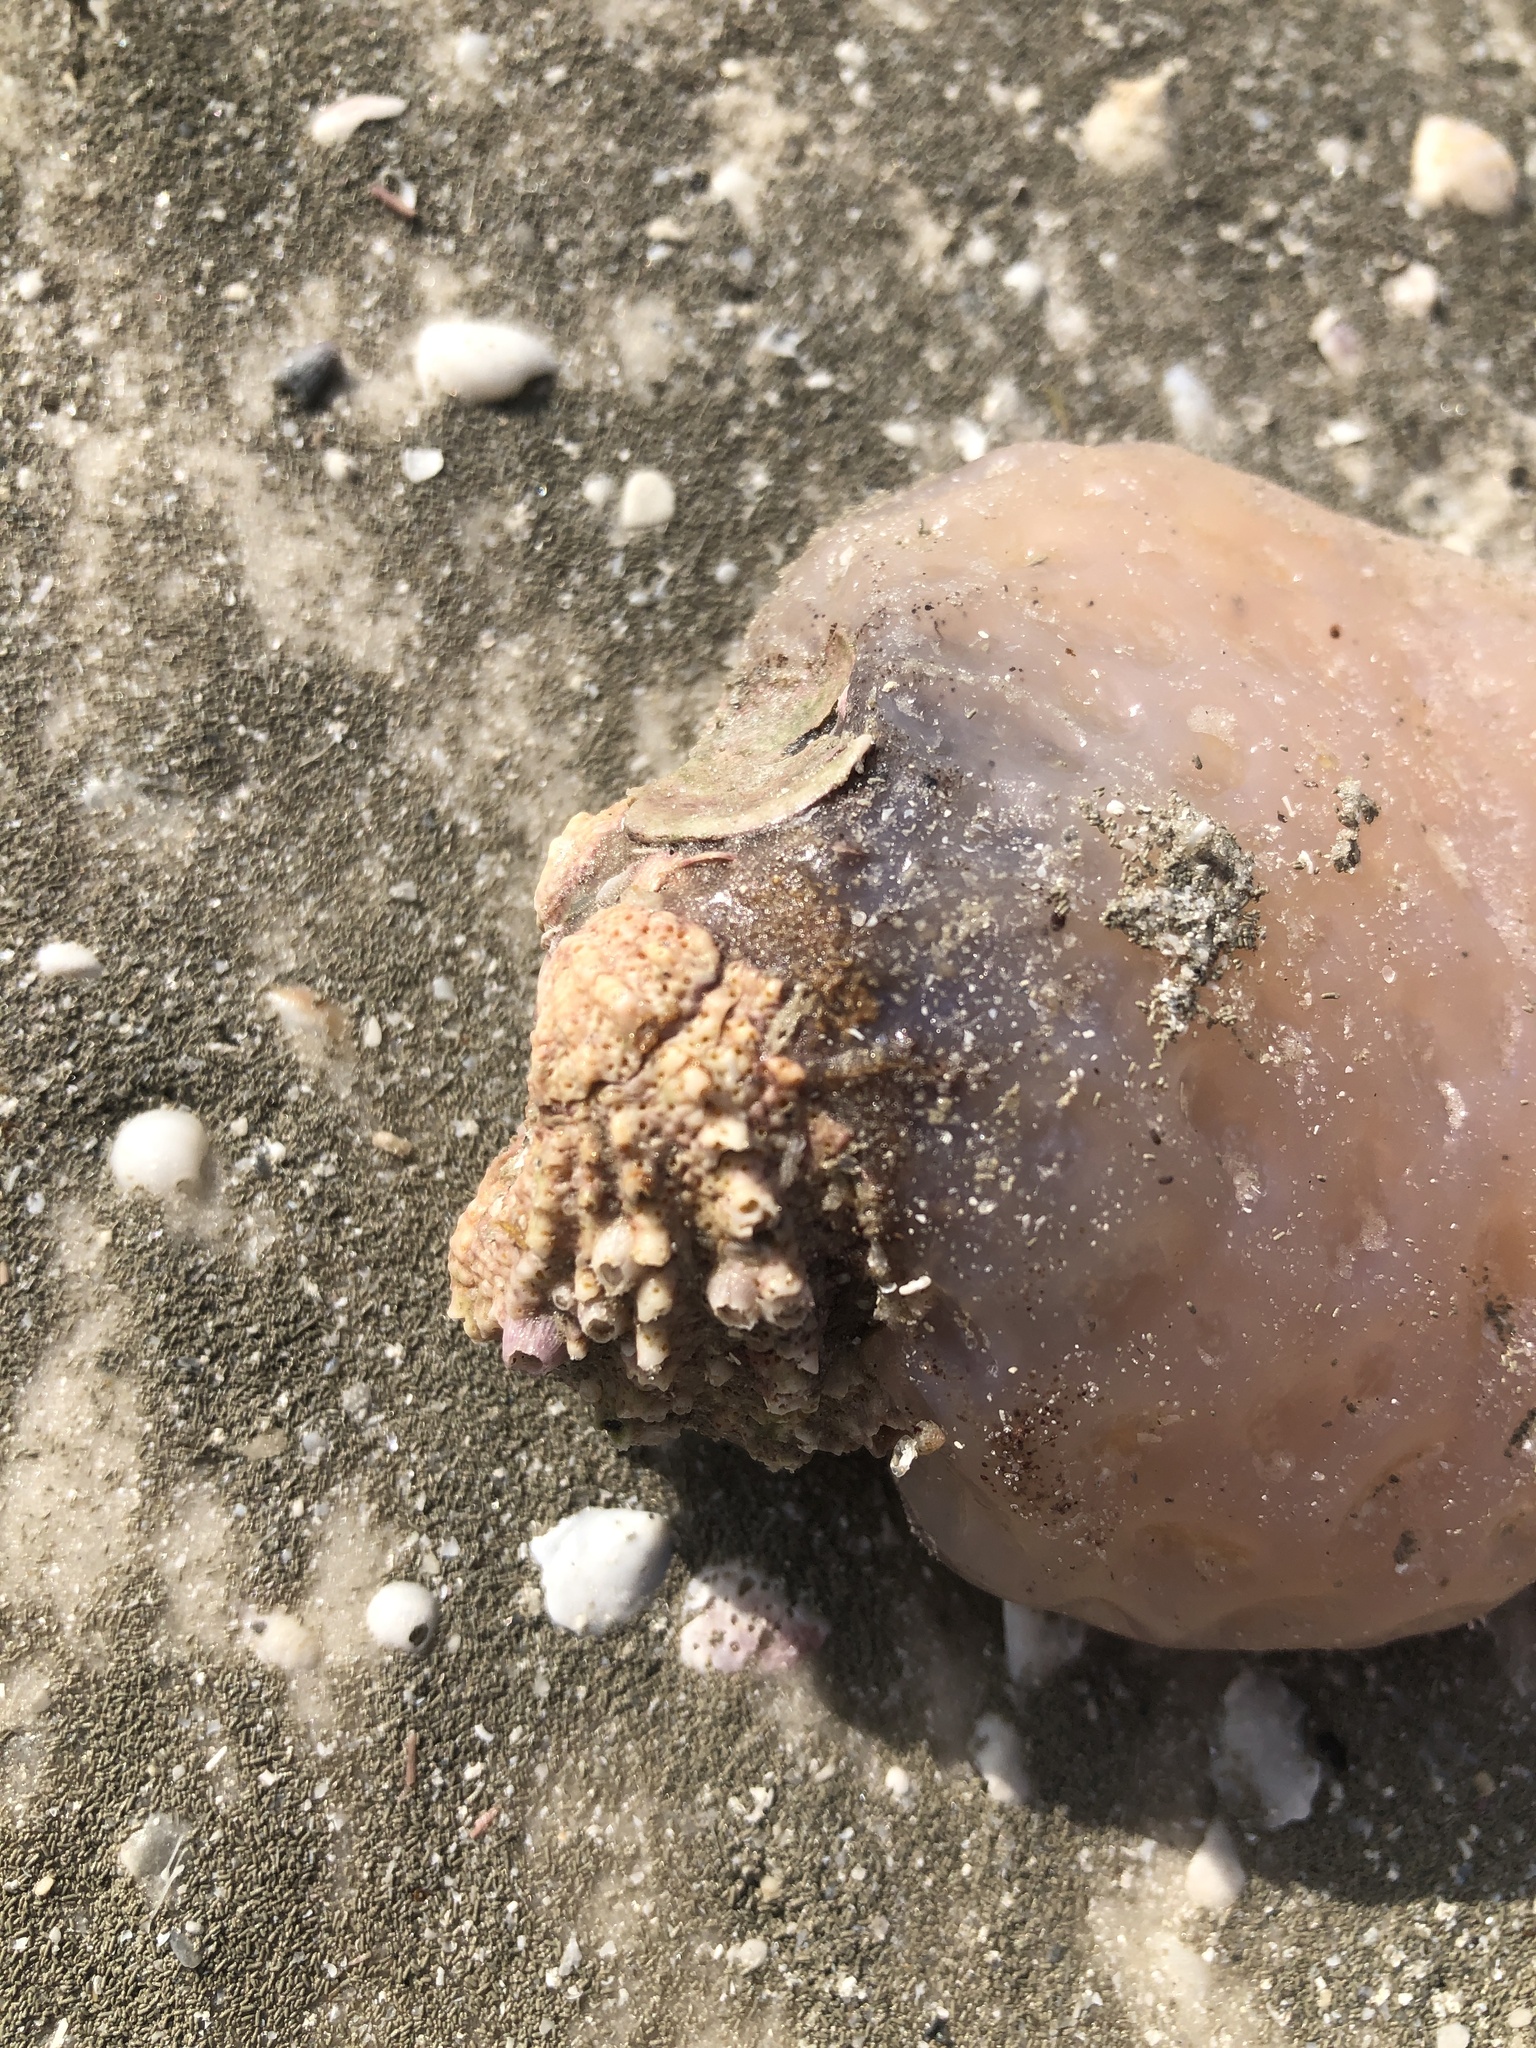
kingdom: Animalia
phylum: Mollusca
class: Bivalvia
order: Venerida
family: Chamidae
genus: Arcinella
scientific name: Arcinella cornuta
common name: Florida spiny jewel box
